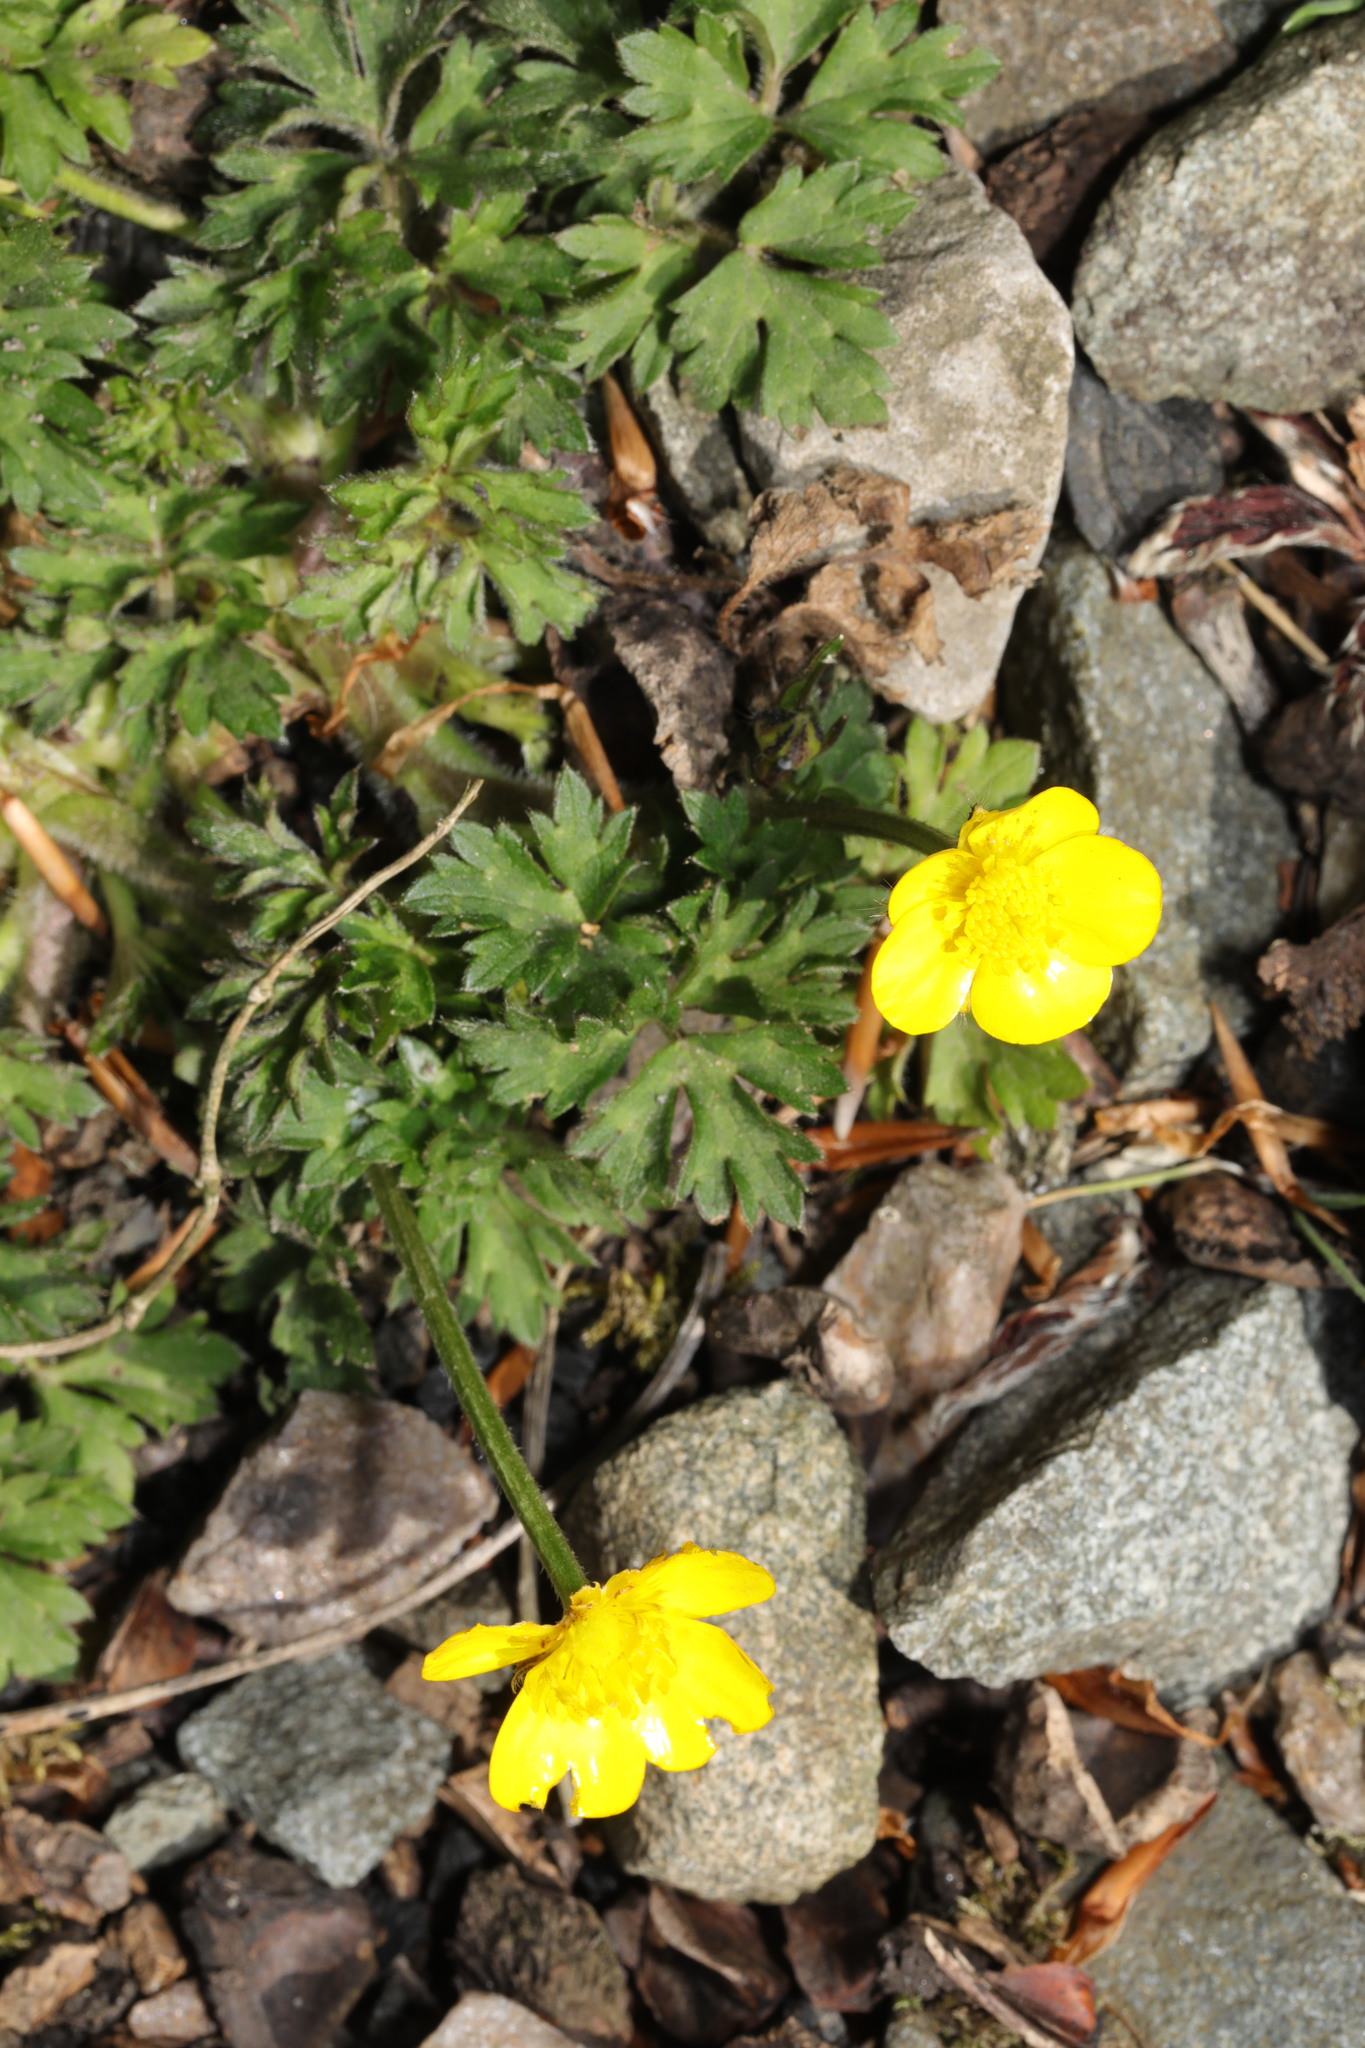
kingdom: Plantae
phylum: Tracheophyta
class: Magnoliopsida
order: Ranunculales
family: Ranunculaceae
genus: Ranunculus
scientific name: Ranunculus repens
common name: Creeping buttercup
